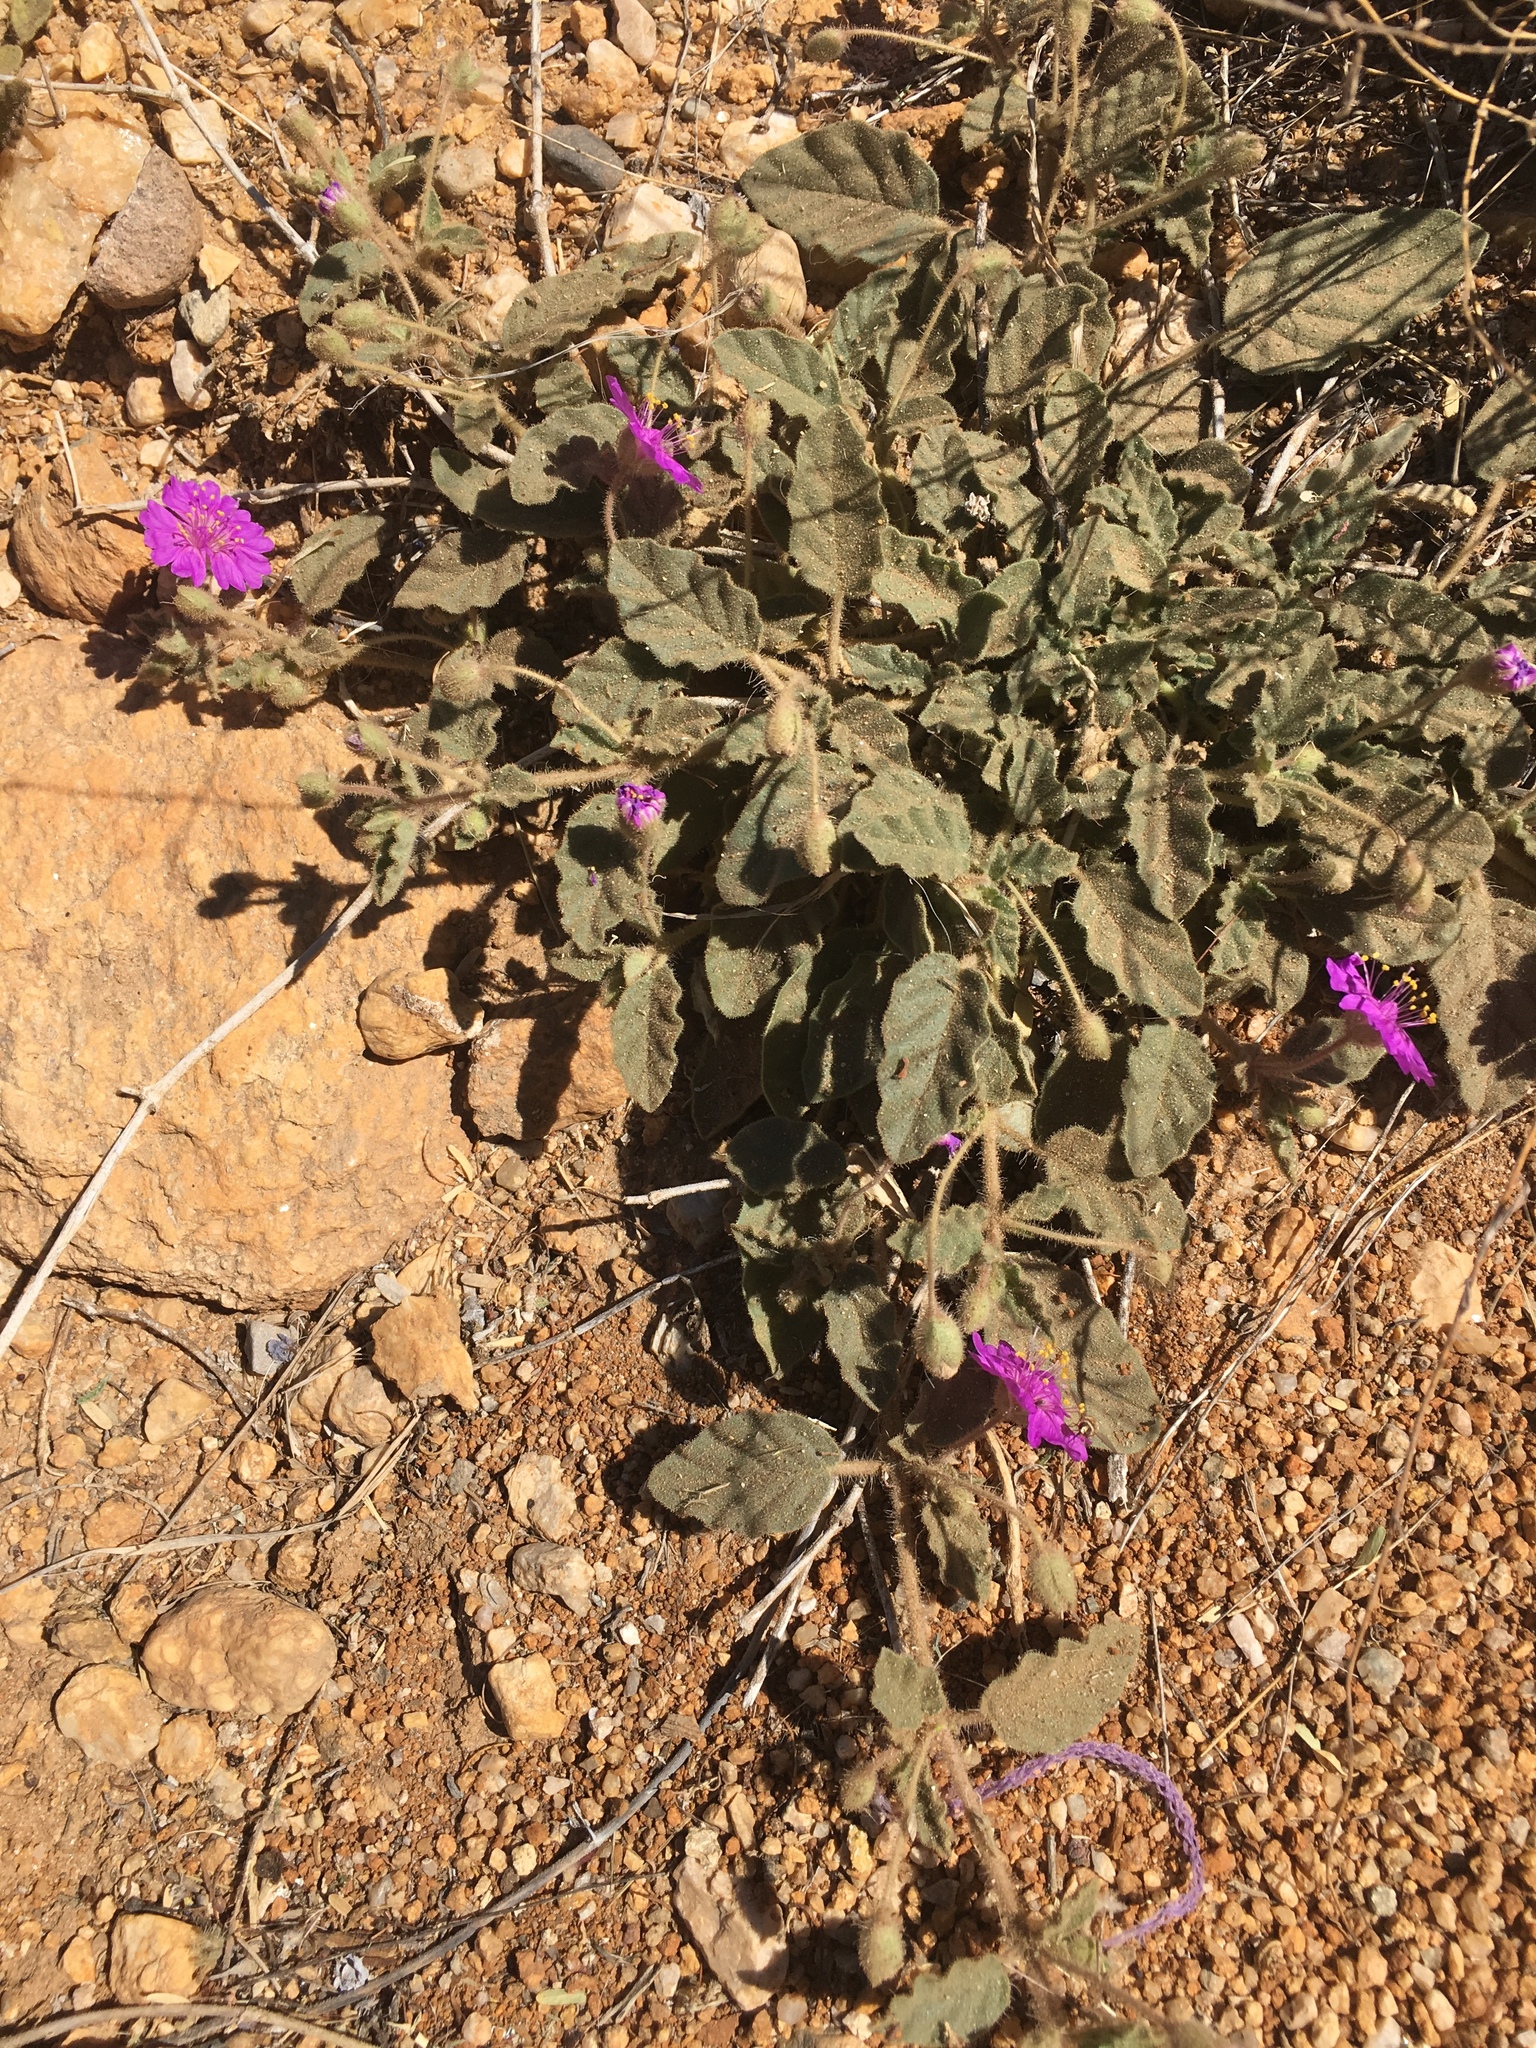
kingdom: Plantae
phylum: Tracheophyta
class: Magnoliopsida
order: Caryophyllales
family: Nyctaginaceae
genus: Allionia
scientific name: Allionia incarnata
